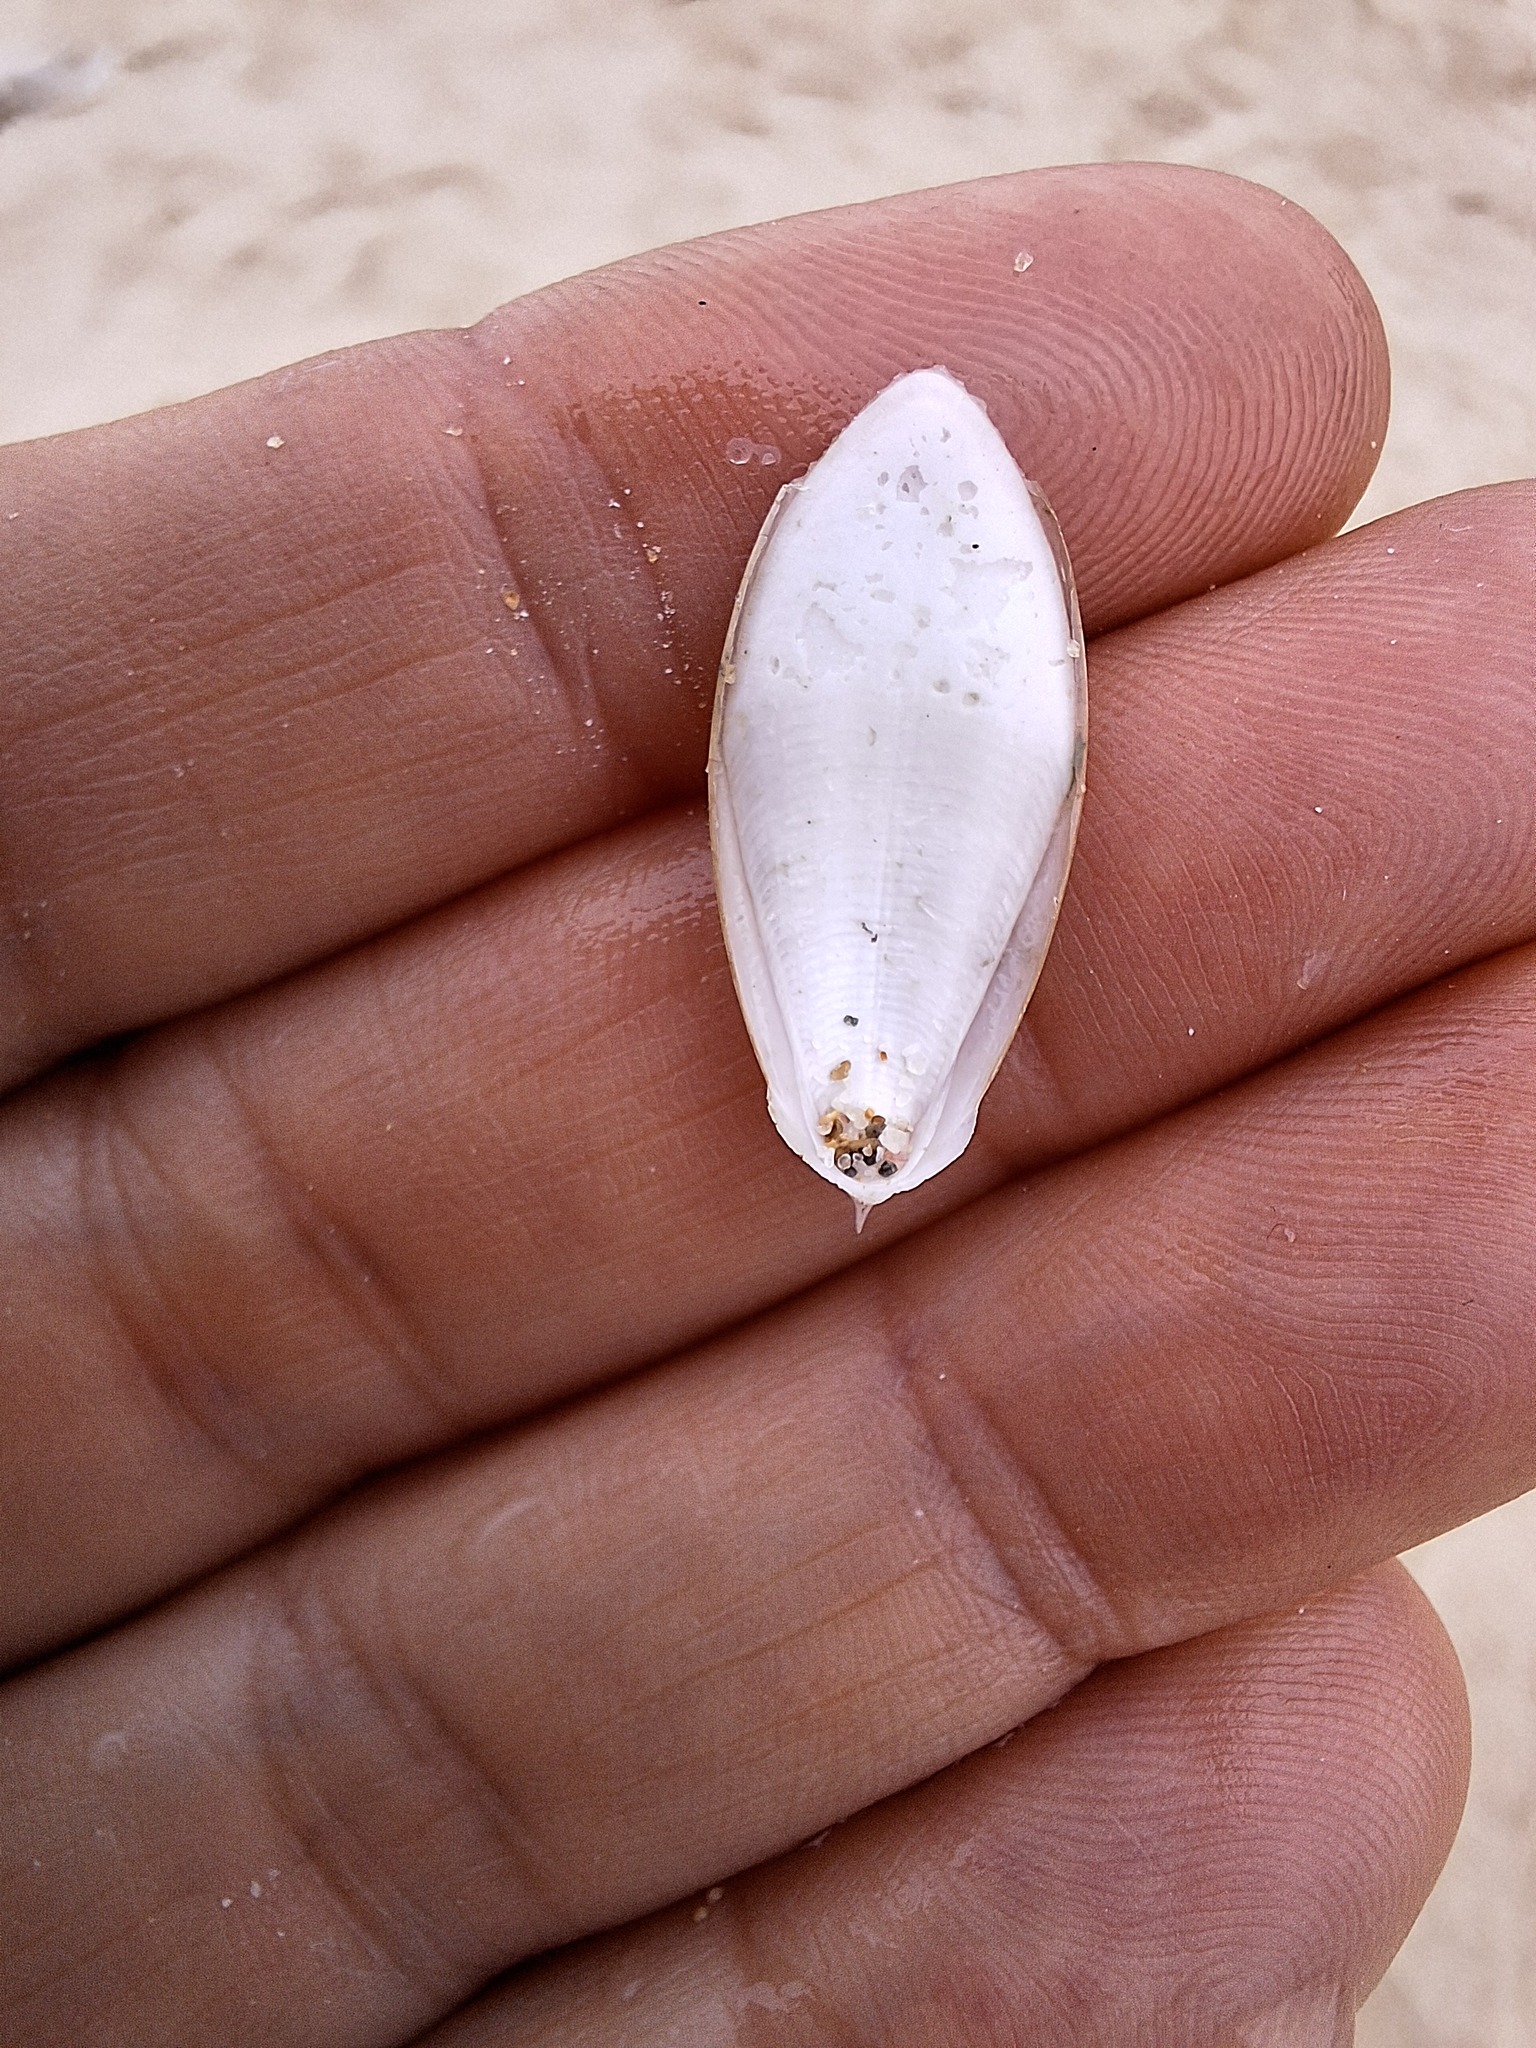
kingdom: Animalia
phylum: Mollusca
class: Cephalopoda
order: Sepiida
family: Sepiidae
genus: Rhombosepion
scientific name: Rhombosepion orbignyanum
